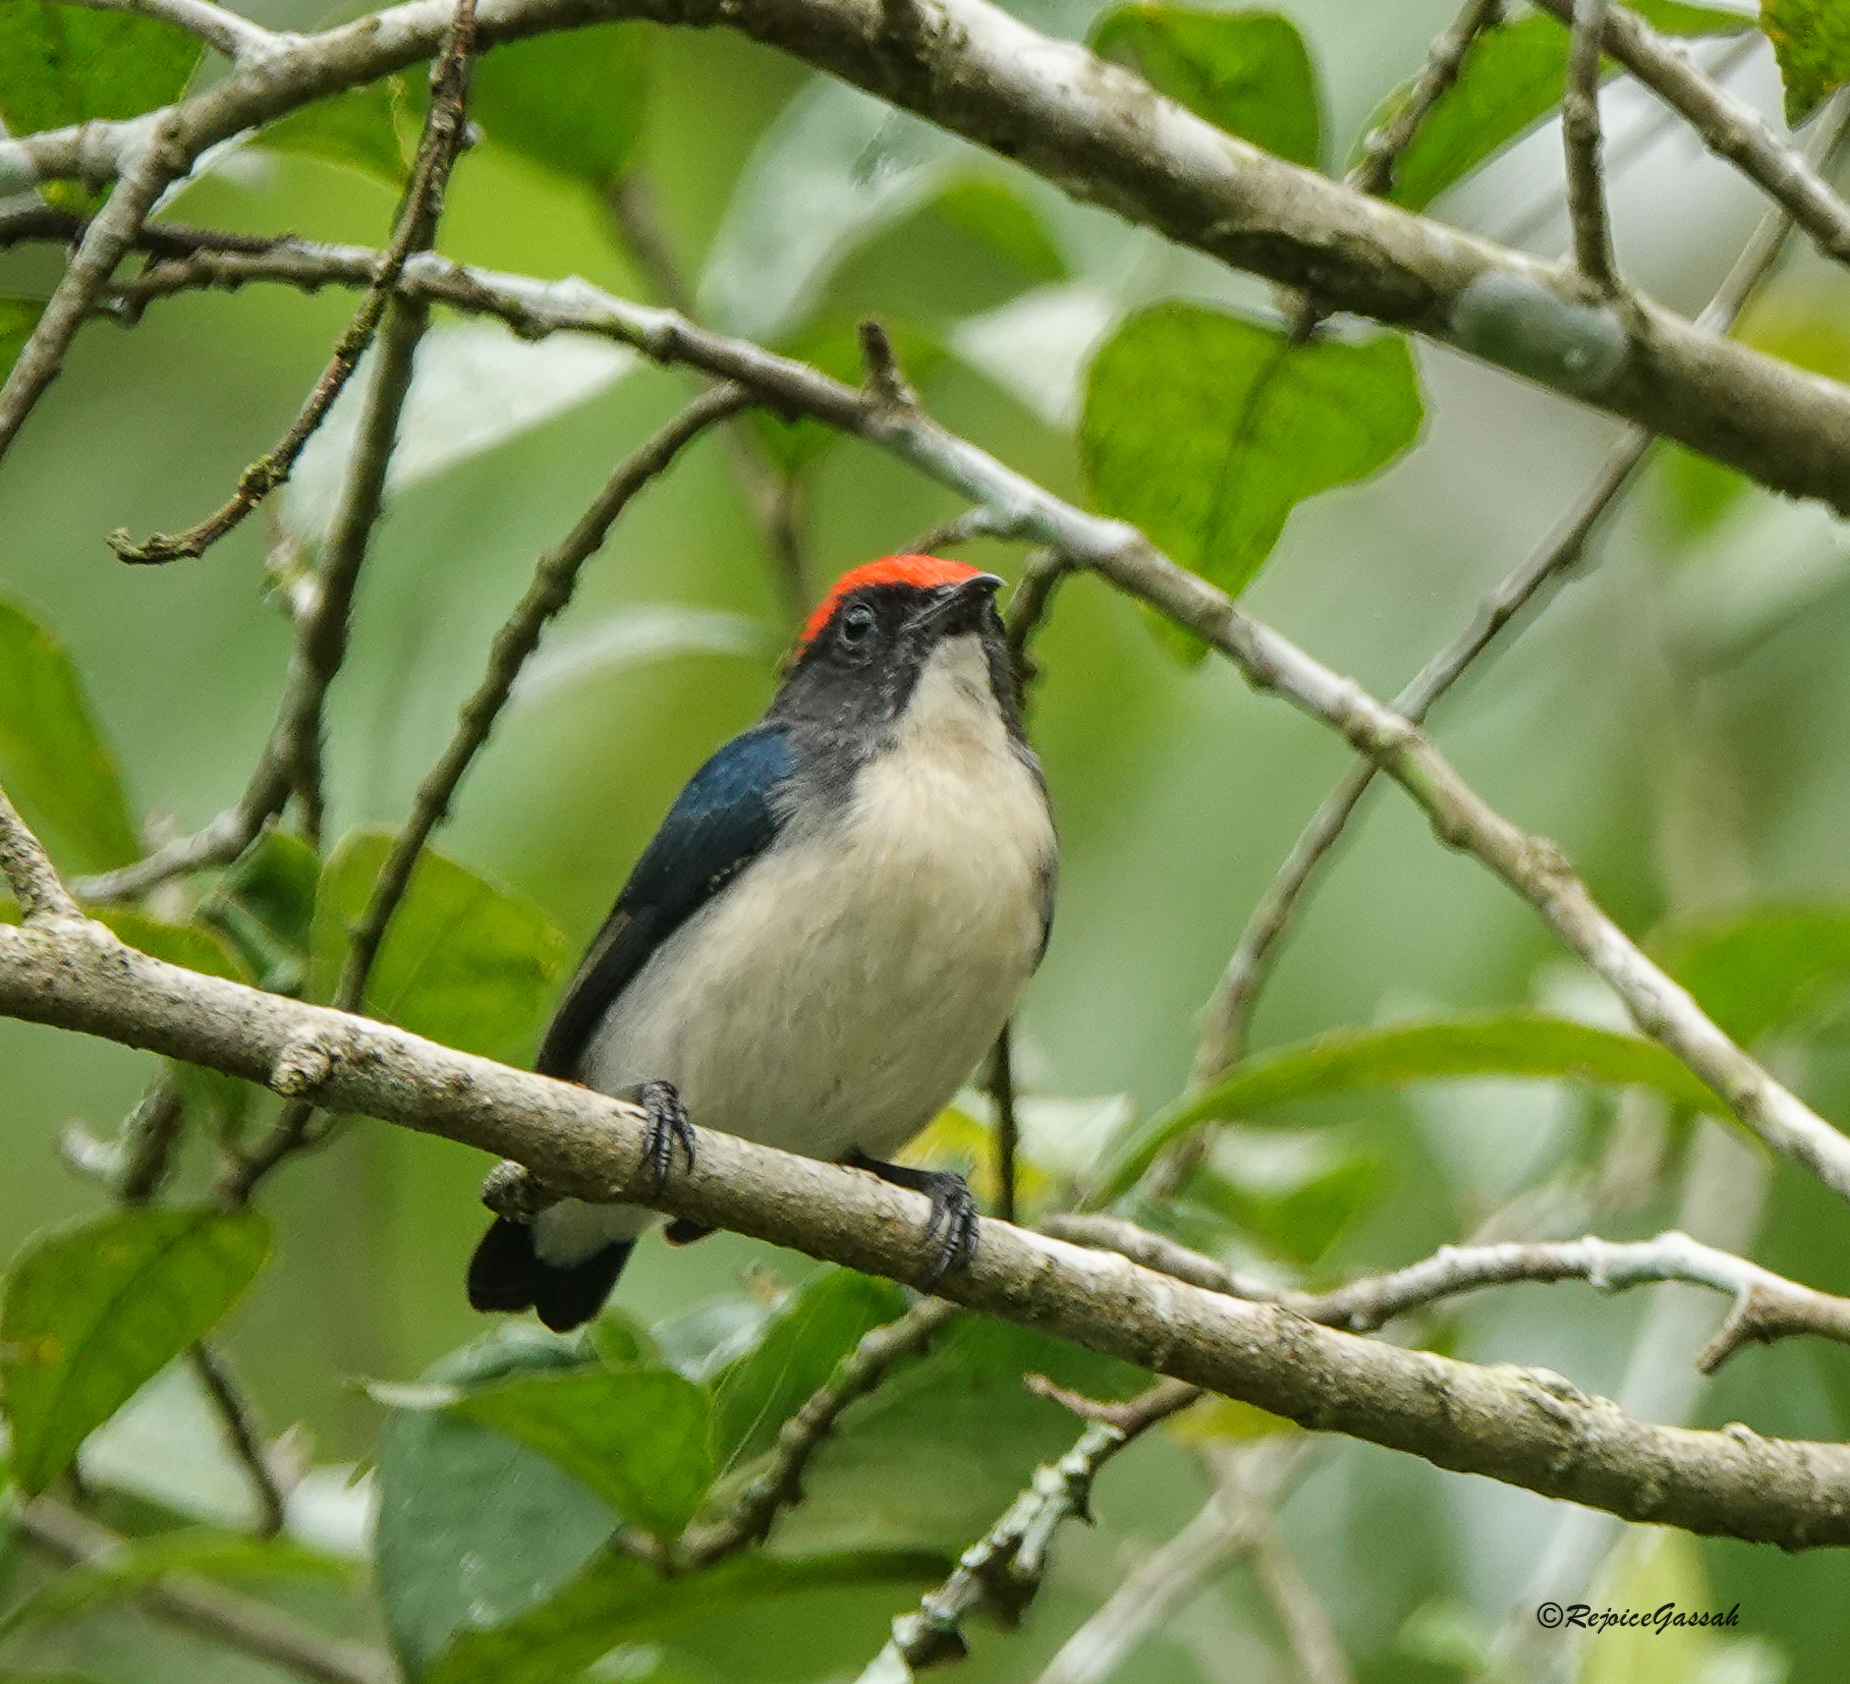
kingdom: Animalia
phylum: Chordata
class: Aves
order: Passeriformes
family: Dicaeidae
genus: Dicaeum
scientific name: Dicaeum cruentatum
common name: Scarlet-backed flowerpecker
